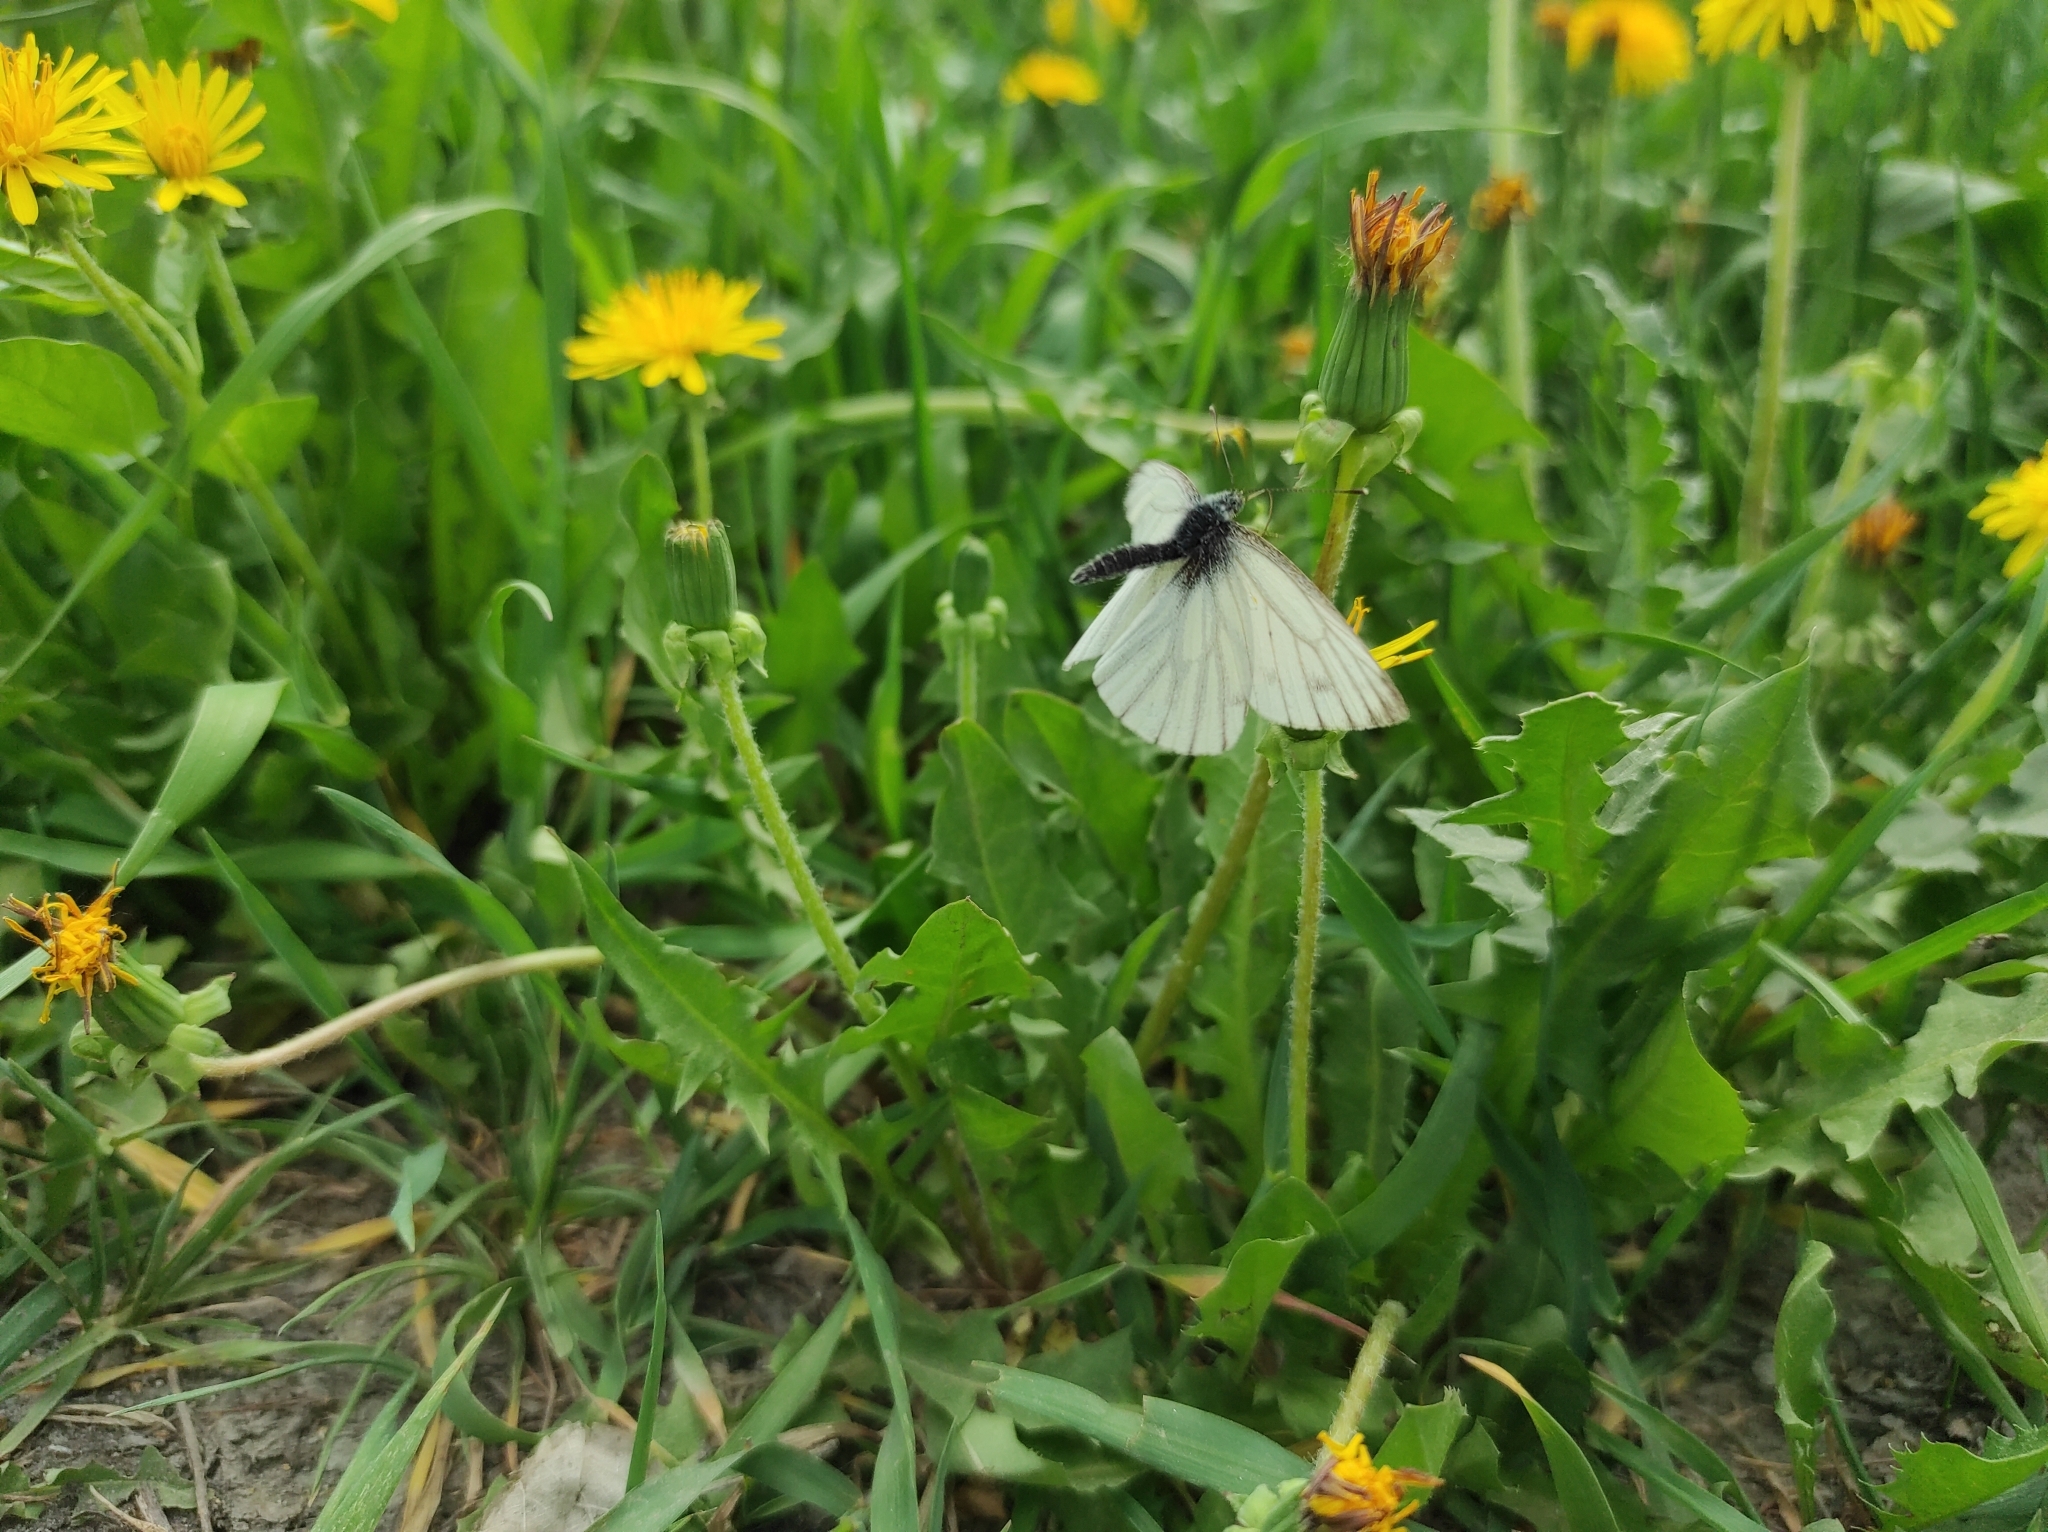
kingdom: Animalia
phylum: Arthropoda
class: Insecta
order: Lepidoptera
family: Pieridae
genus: Pieris
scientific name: Pieris napi
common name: Green-veined white
